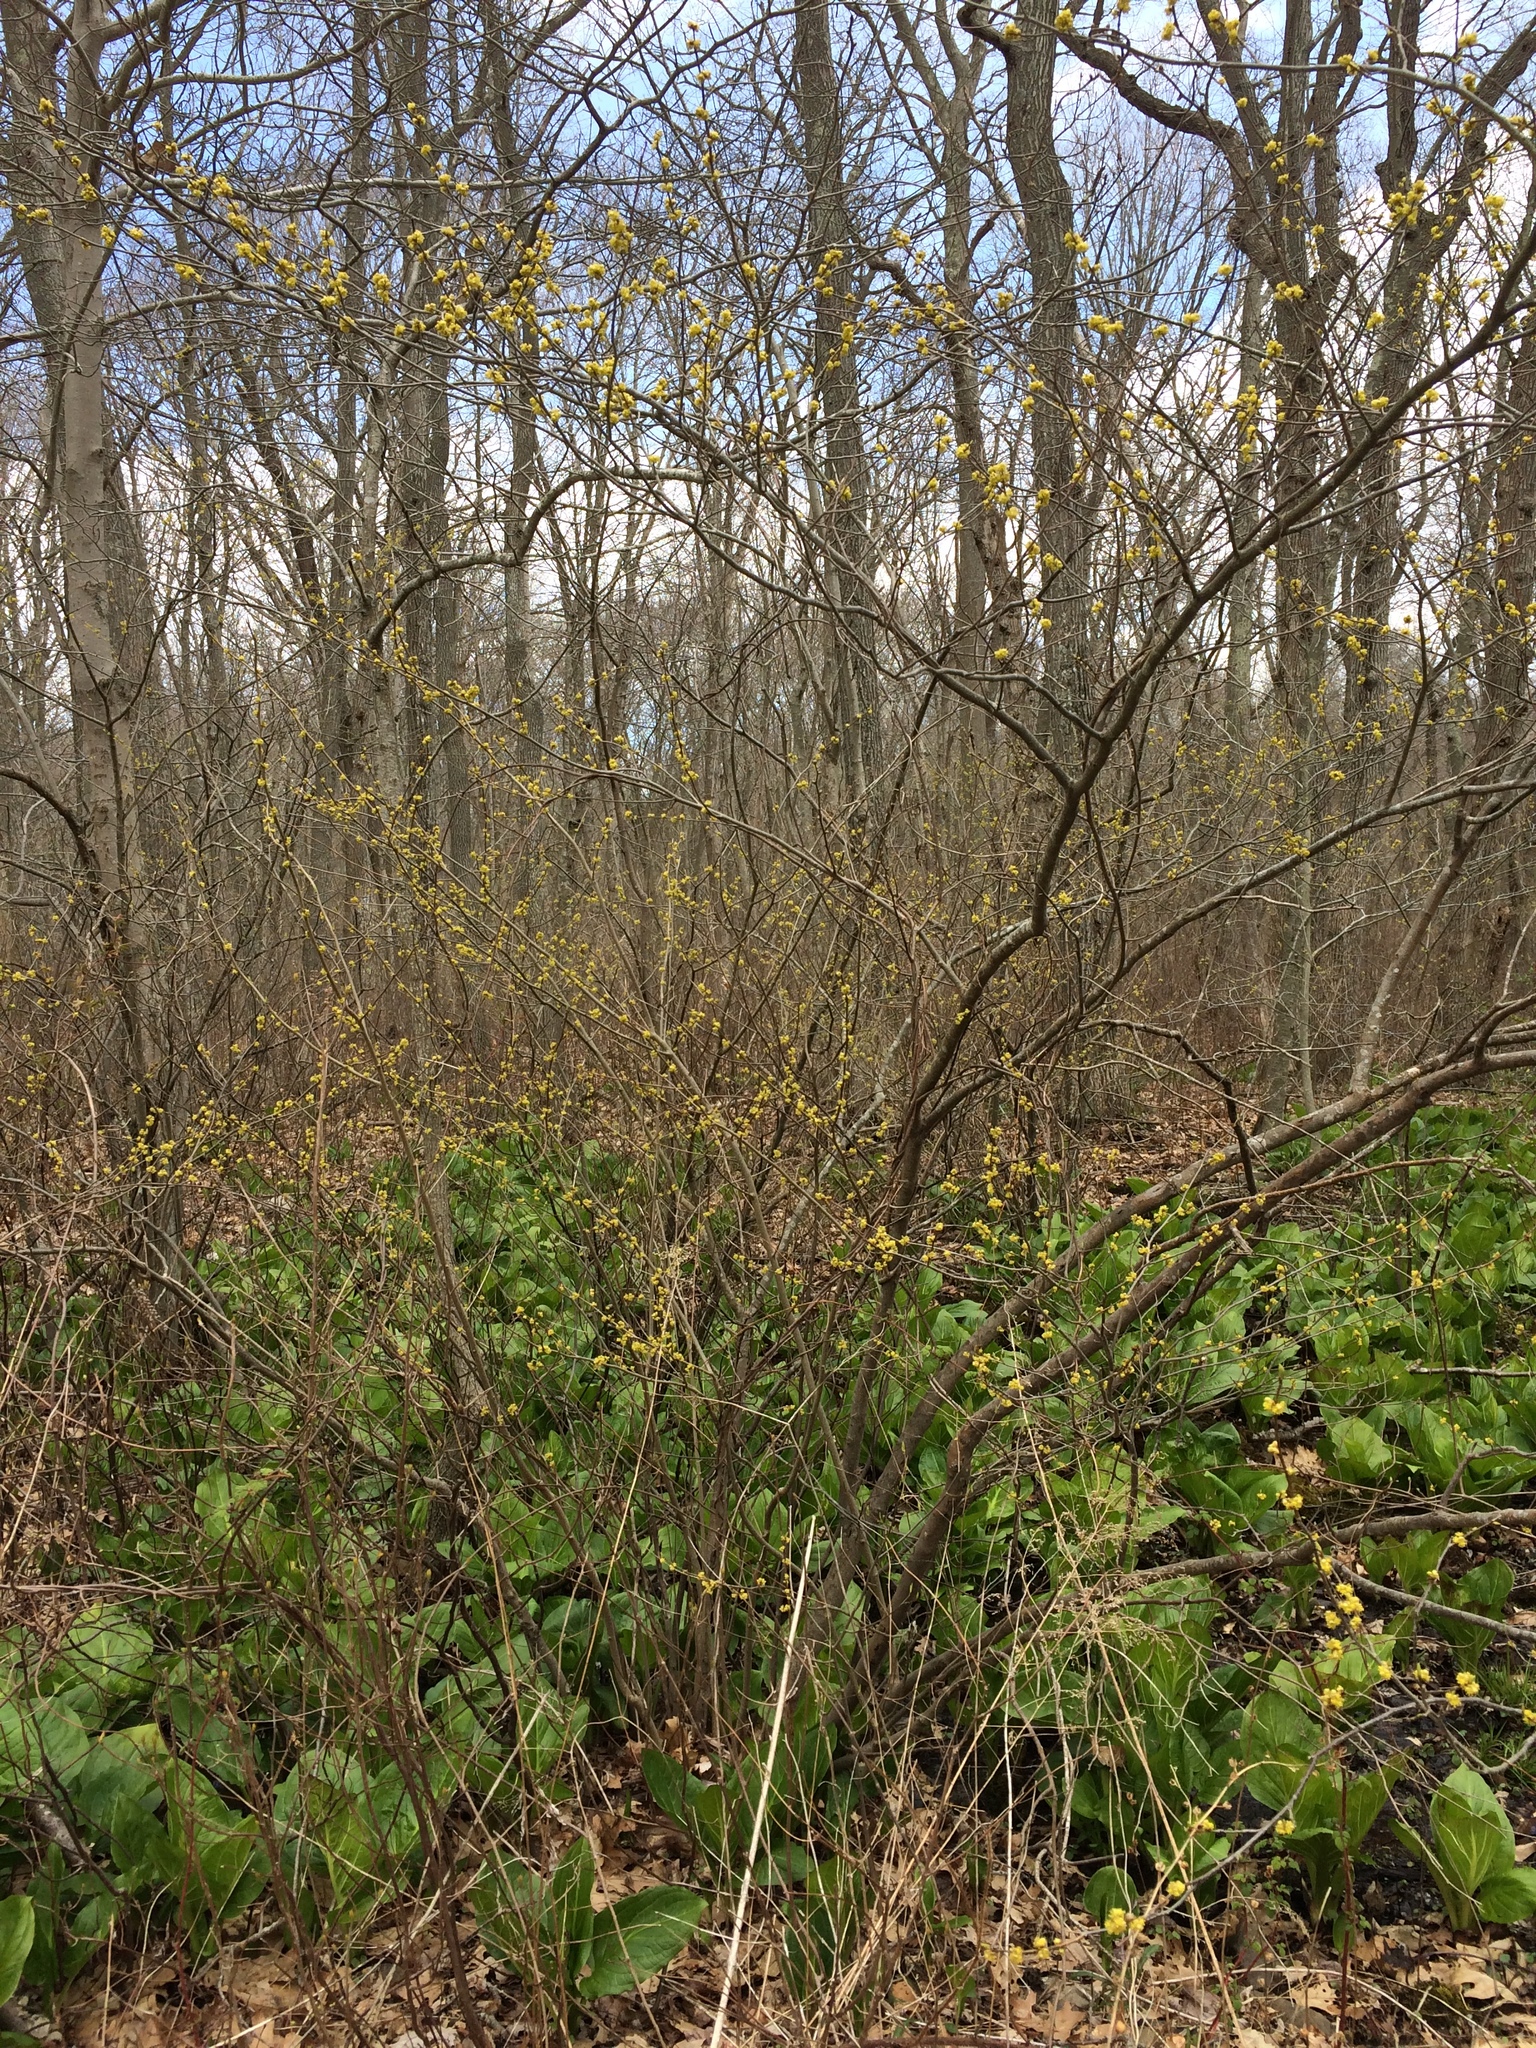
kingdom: Plantae
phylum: Tracheophyta
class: Magnoliopsida
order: Laurales
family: Lauraceae
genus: Lindera
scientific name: Lindera benzoin
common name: Spicebush
